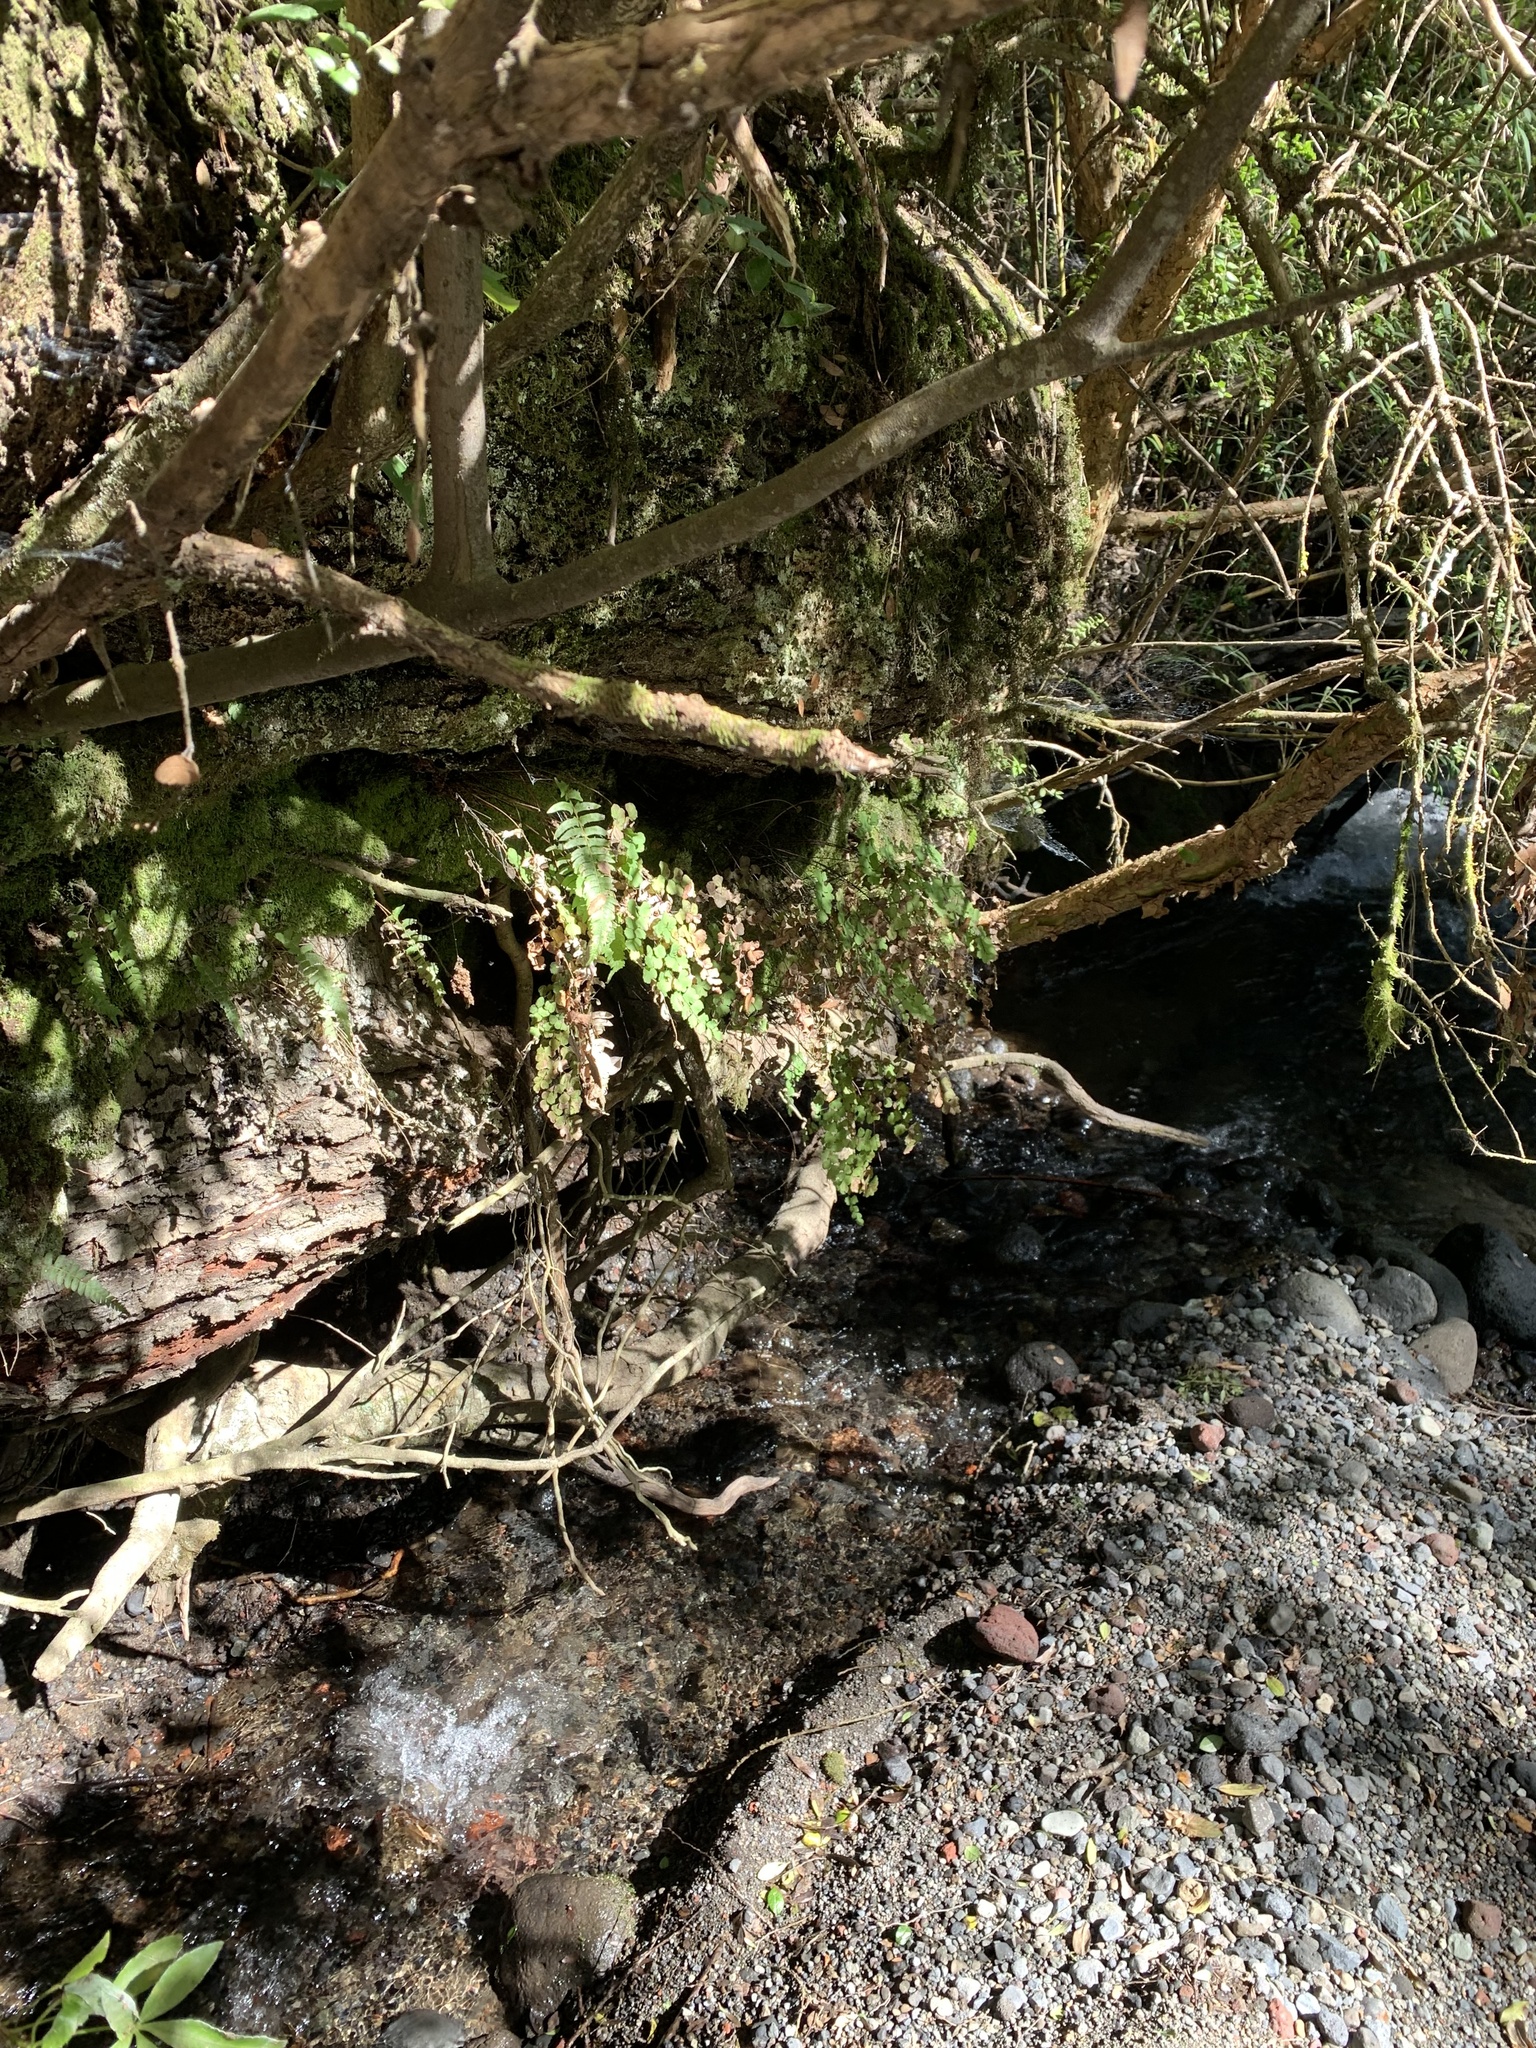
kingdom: Plantae
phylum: Tracheophyta
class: Polypodiopsida
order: Polypodiales
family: Pteridaceae
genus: Adiantum
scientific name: Adiantum chilense
